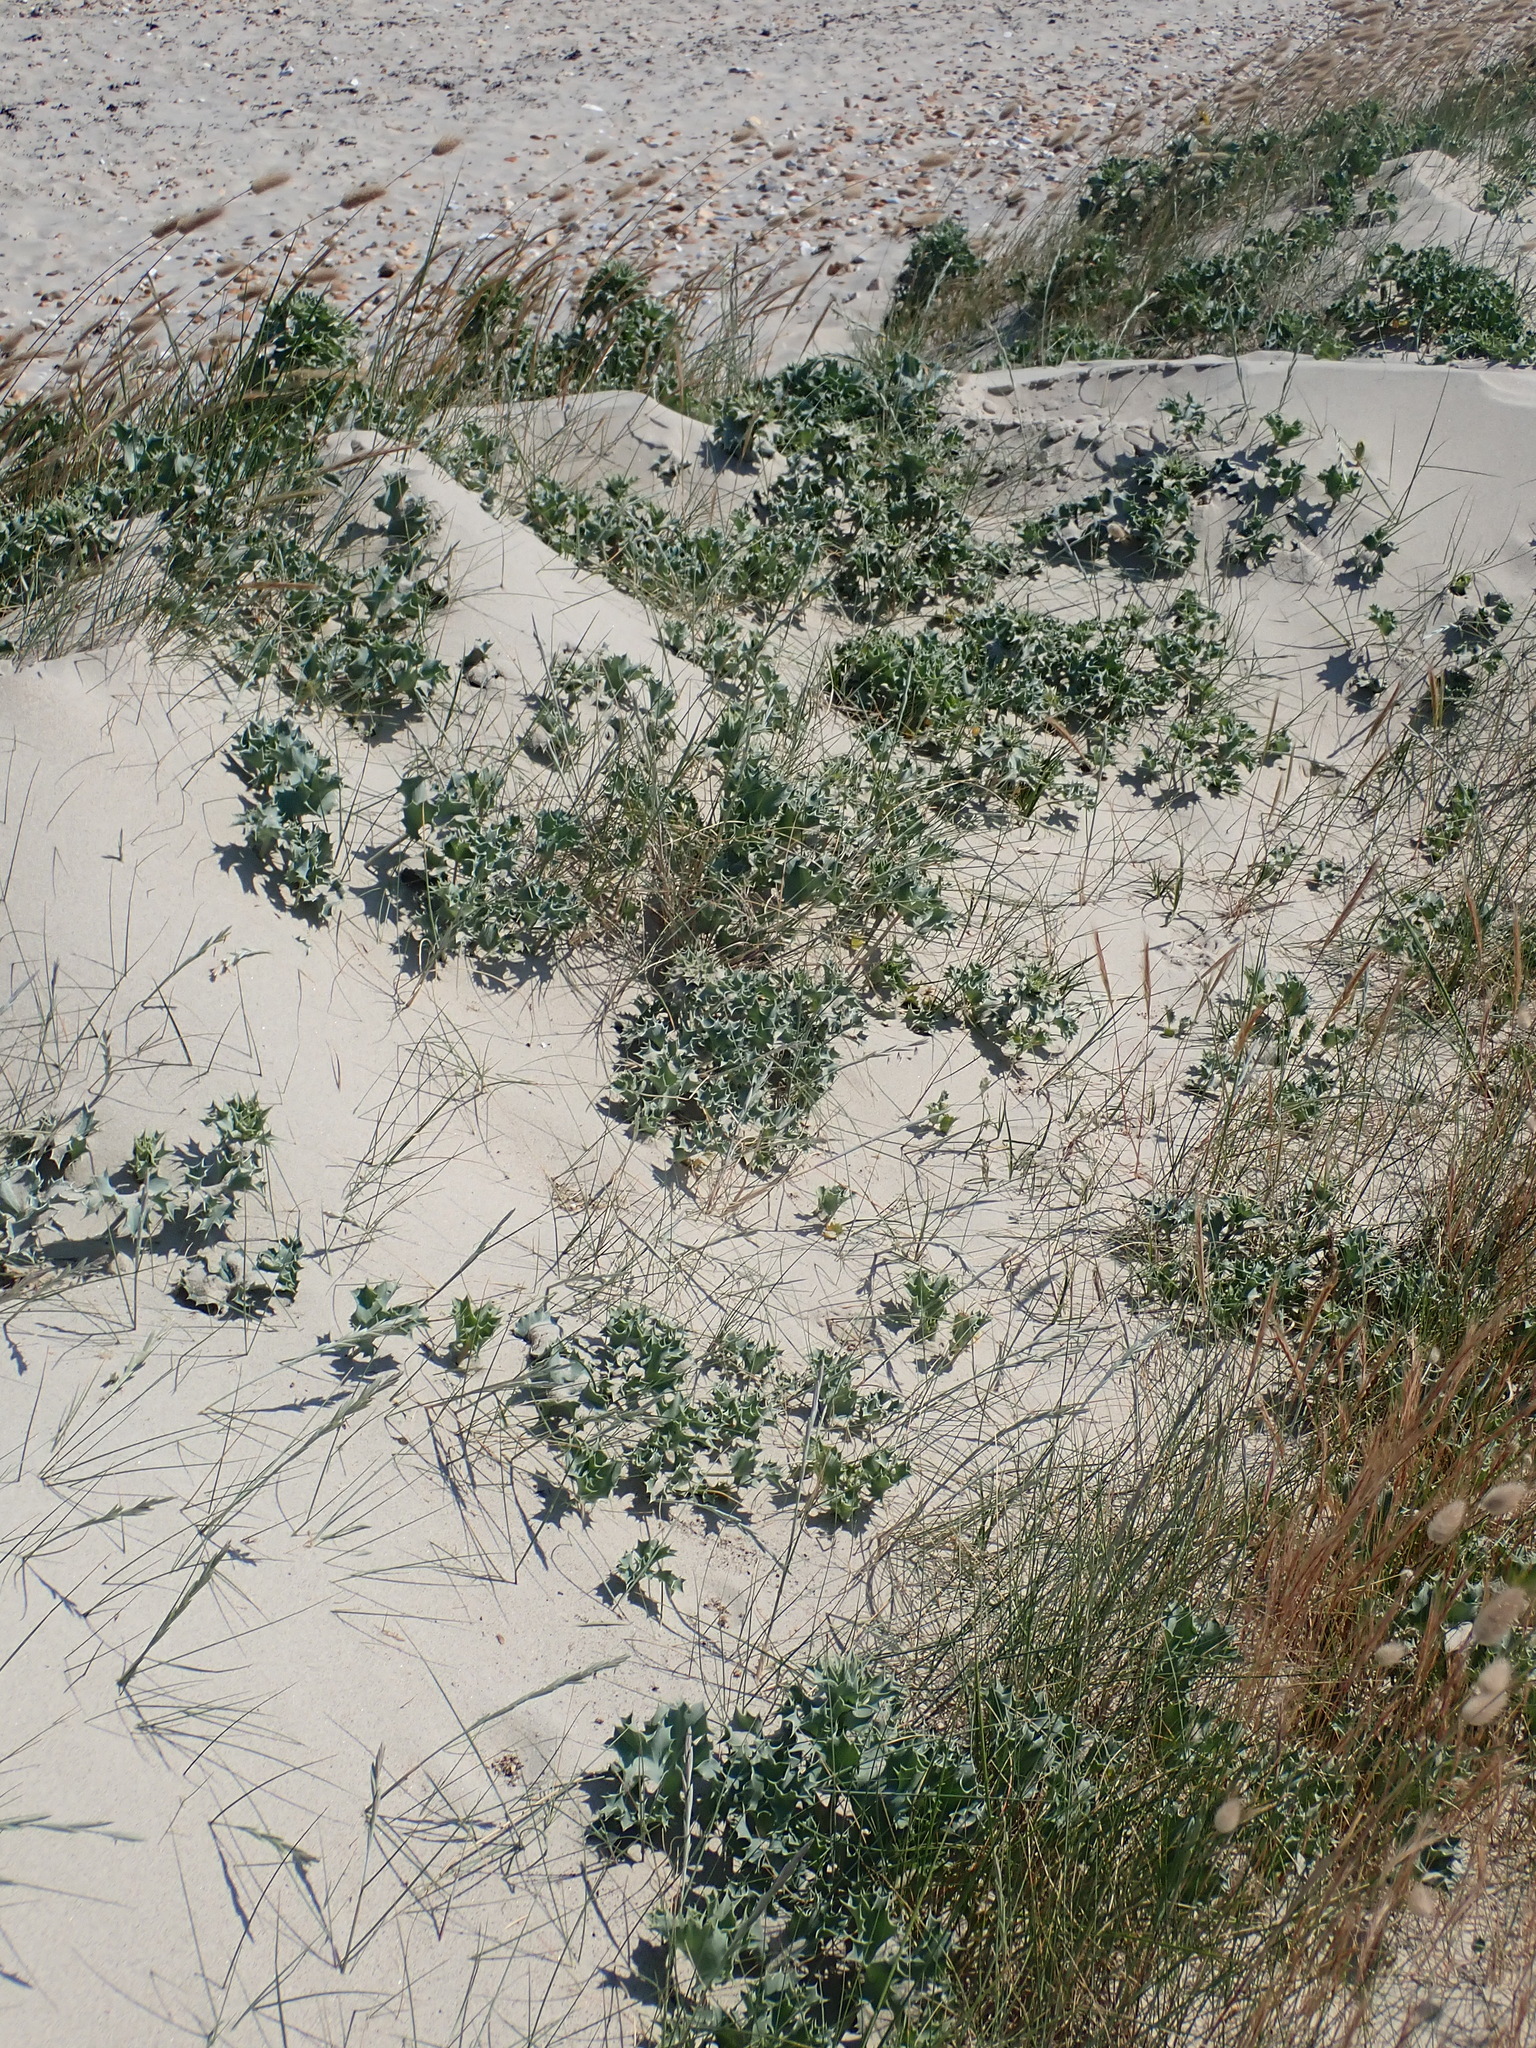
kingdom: Plantae
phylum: Tracheophyta
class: Magnoliopsida
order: Apiales
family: Apiaceae
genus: Eryngium
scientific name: Eryngium maritimum
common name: Sea-holly
